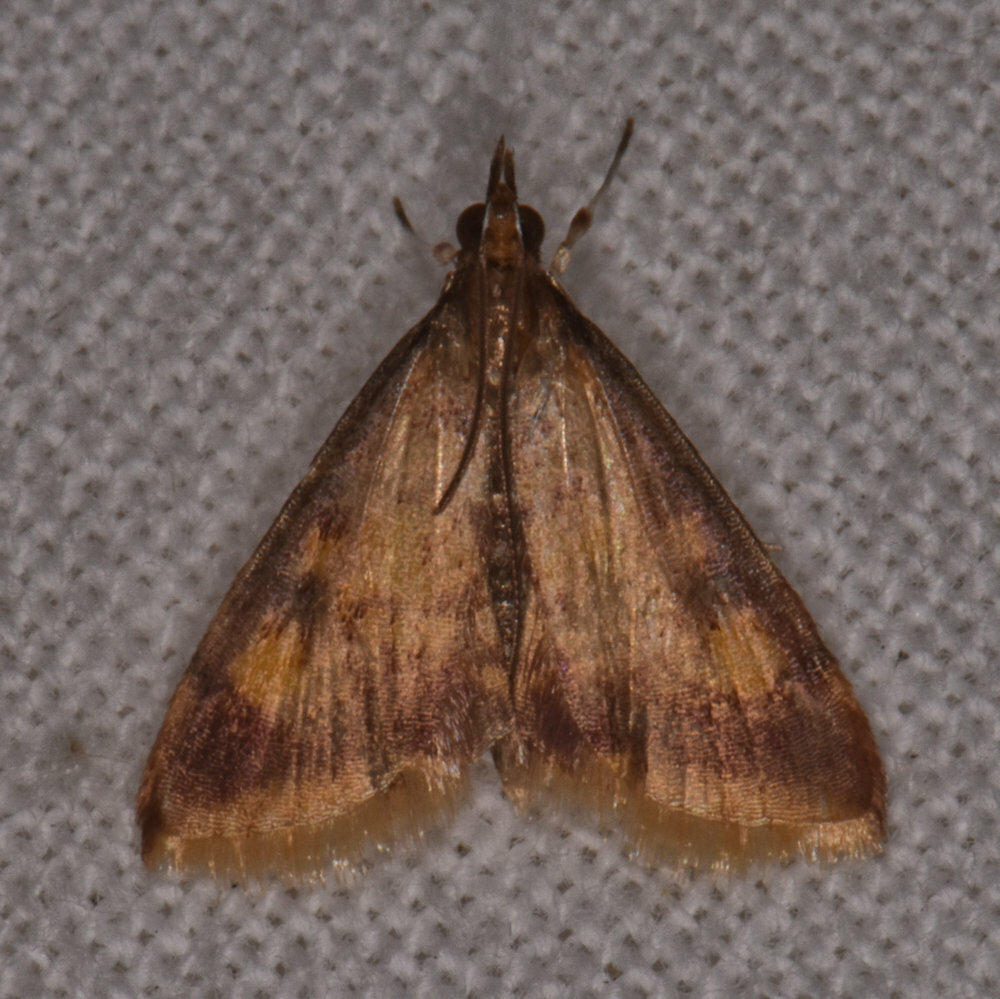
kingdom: Animalia
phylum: Arthropoda
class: Insecta
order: Lepidoptera
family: Crambidae
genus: Pyrausta
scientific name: Pyrausta acrionalis
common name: Mint-loving pyrausta moth
